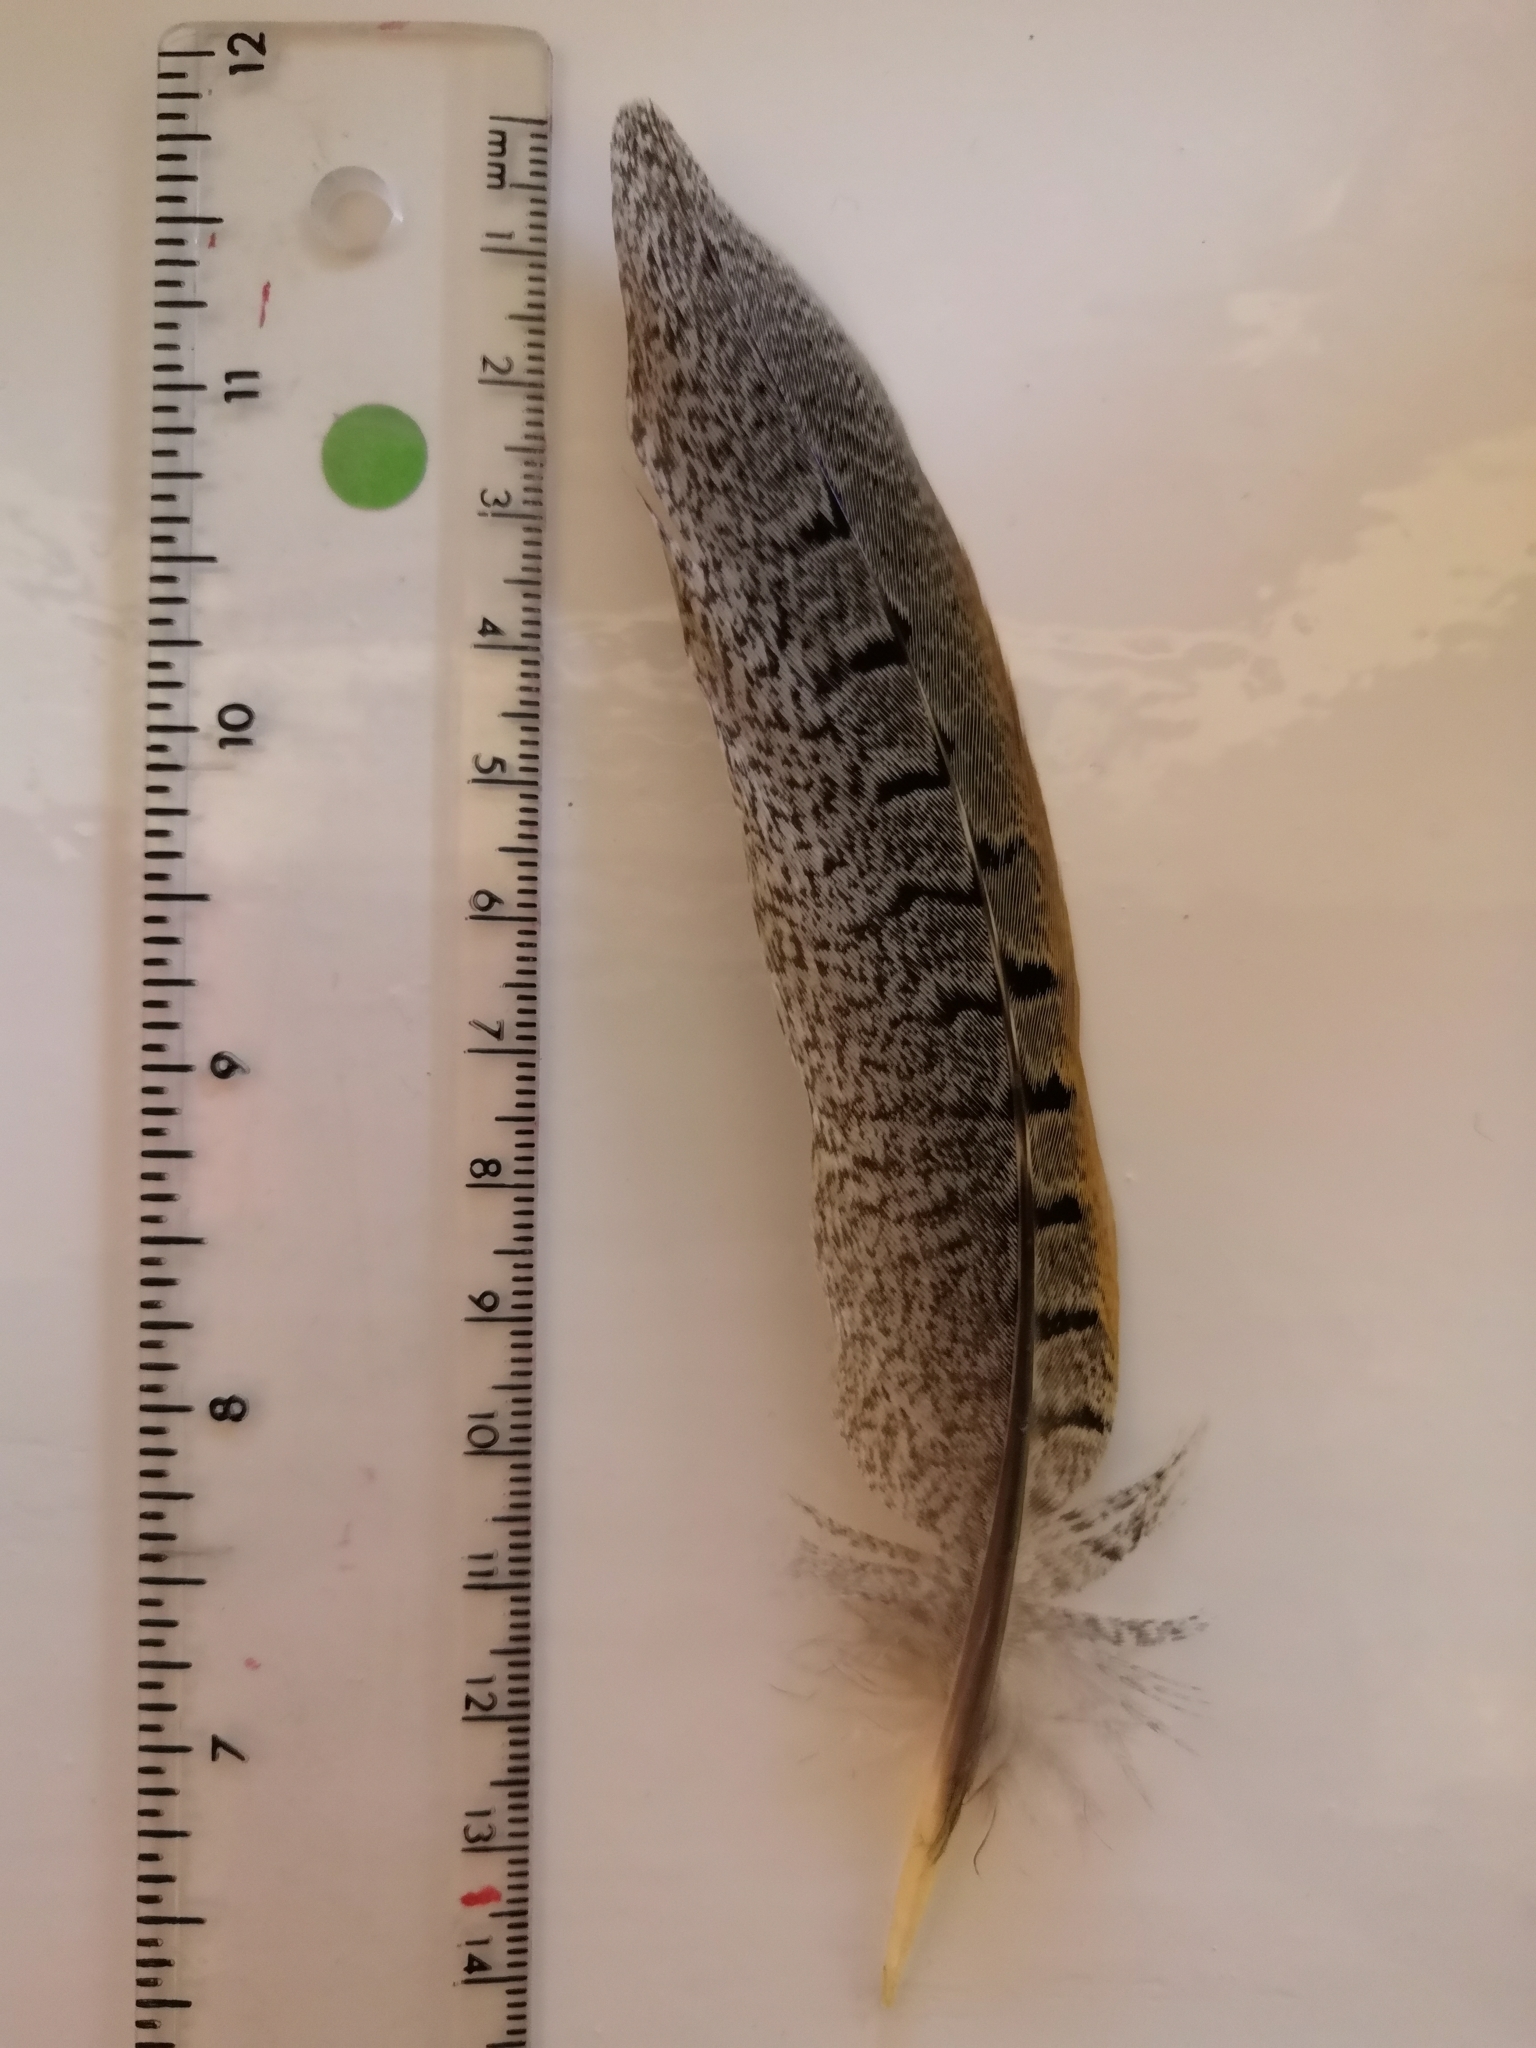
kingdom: Animalia
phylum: Chordata
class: Aves
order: Galliformes
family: Phasianidae
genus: Phasianus
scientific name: Phasianus colchicus
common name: Common pheasant
